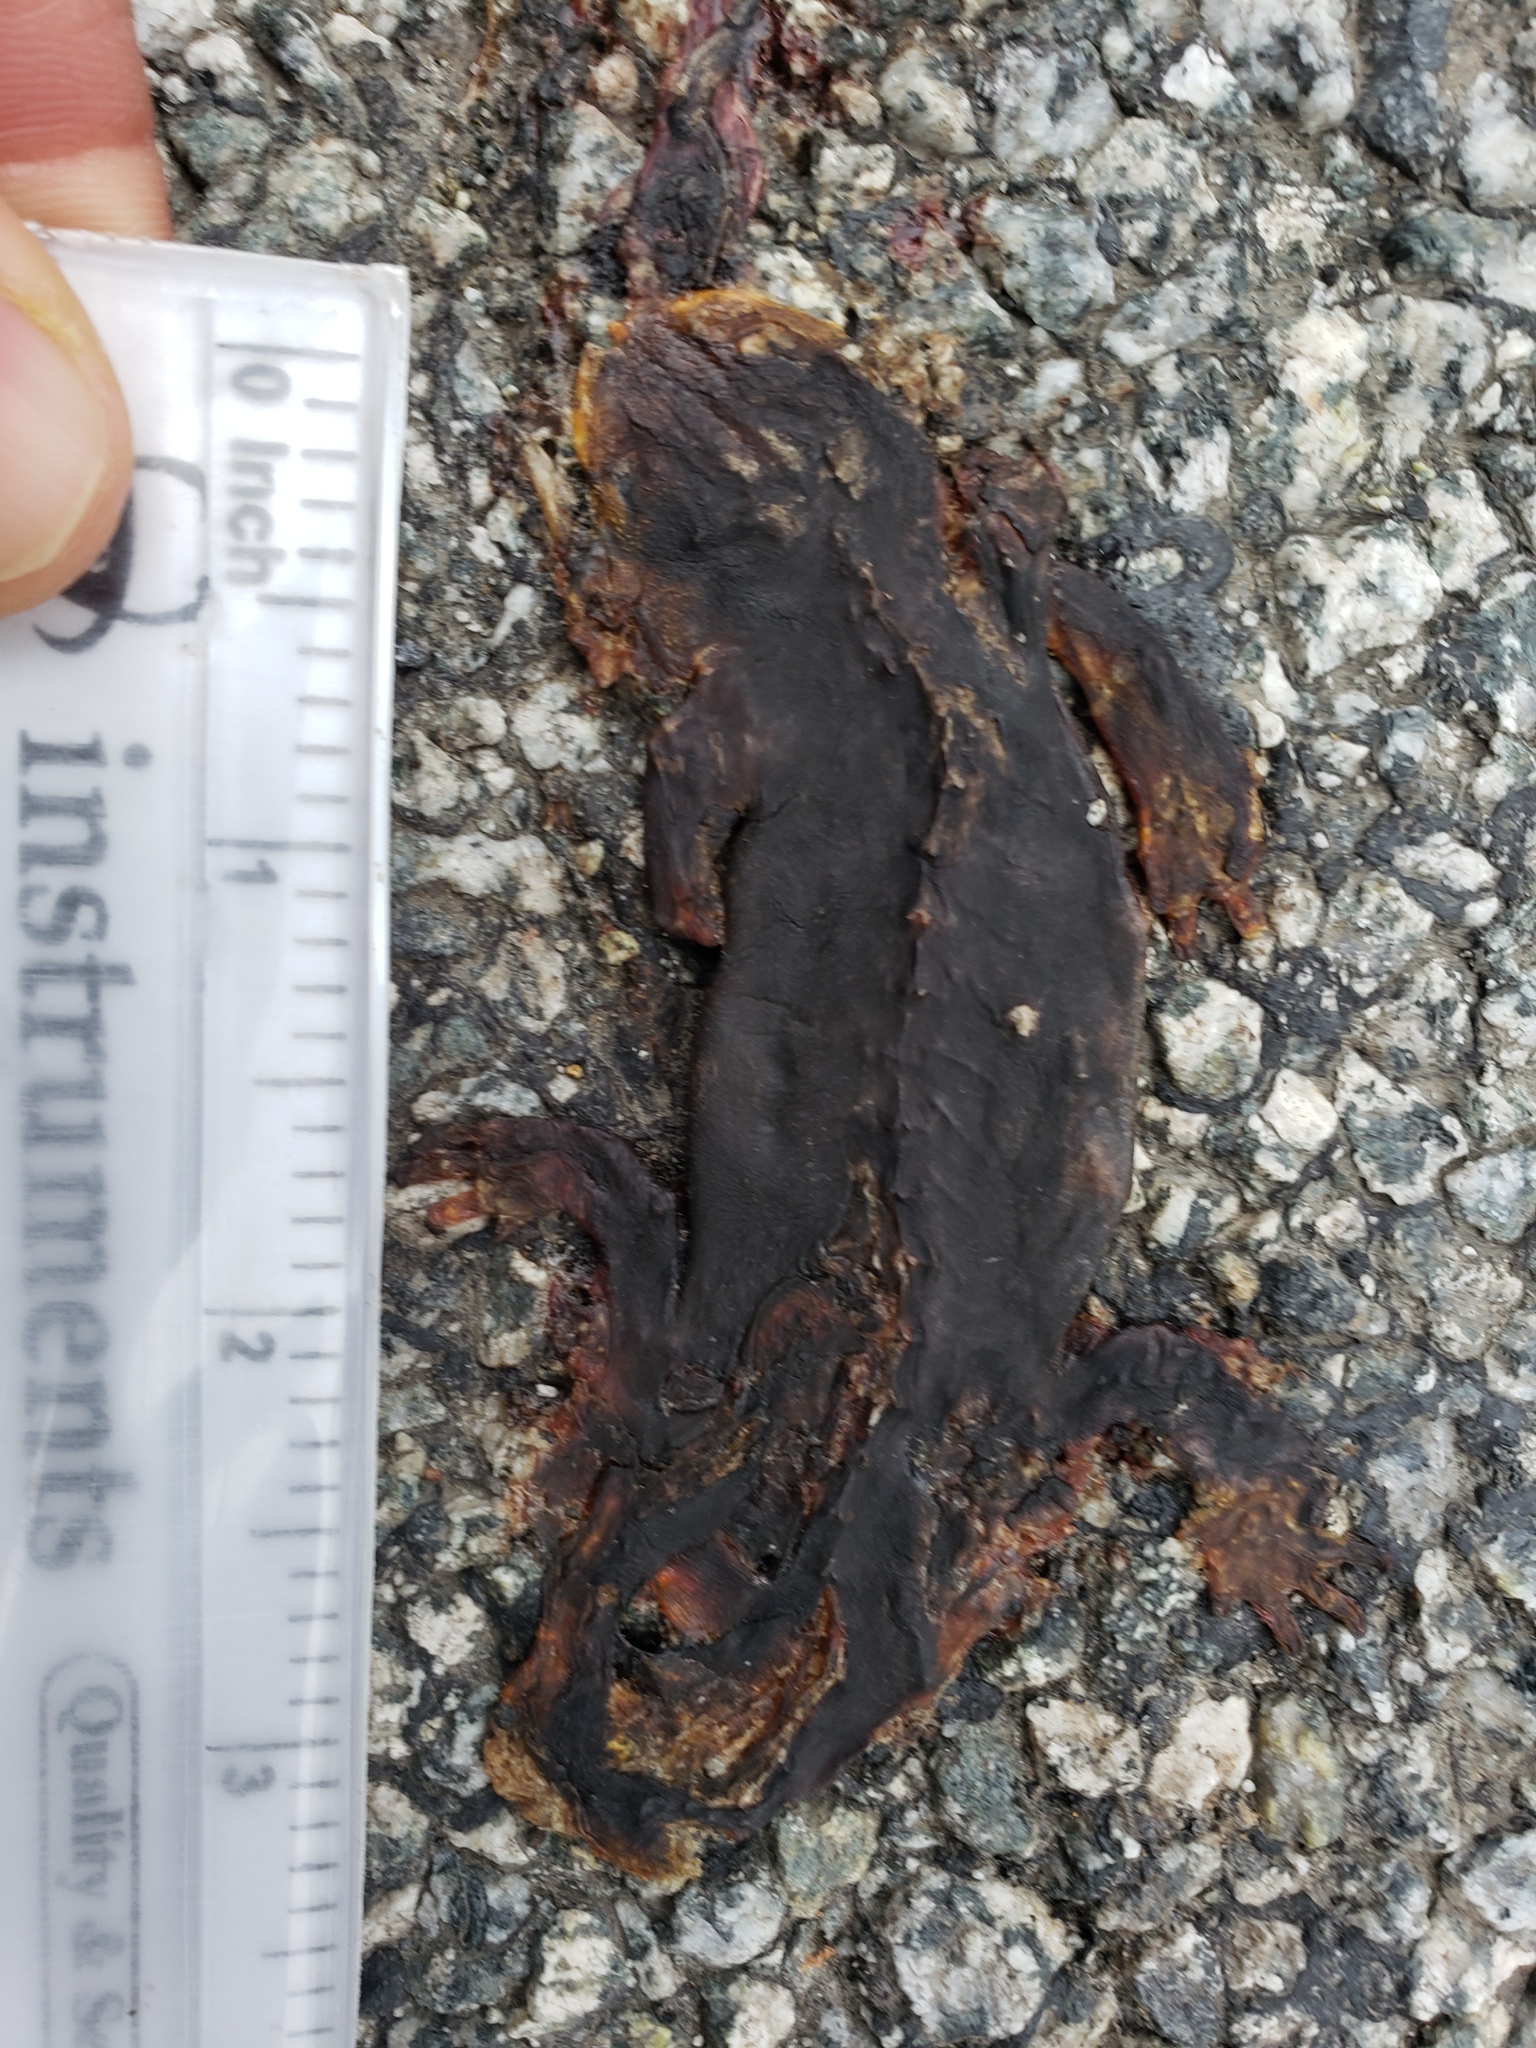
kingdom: Animalia
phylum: Chordata
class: Amphibia
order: Caudata
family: Salamandridae
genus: Taricha
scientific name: Taricha
